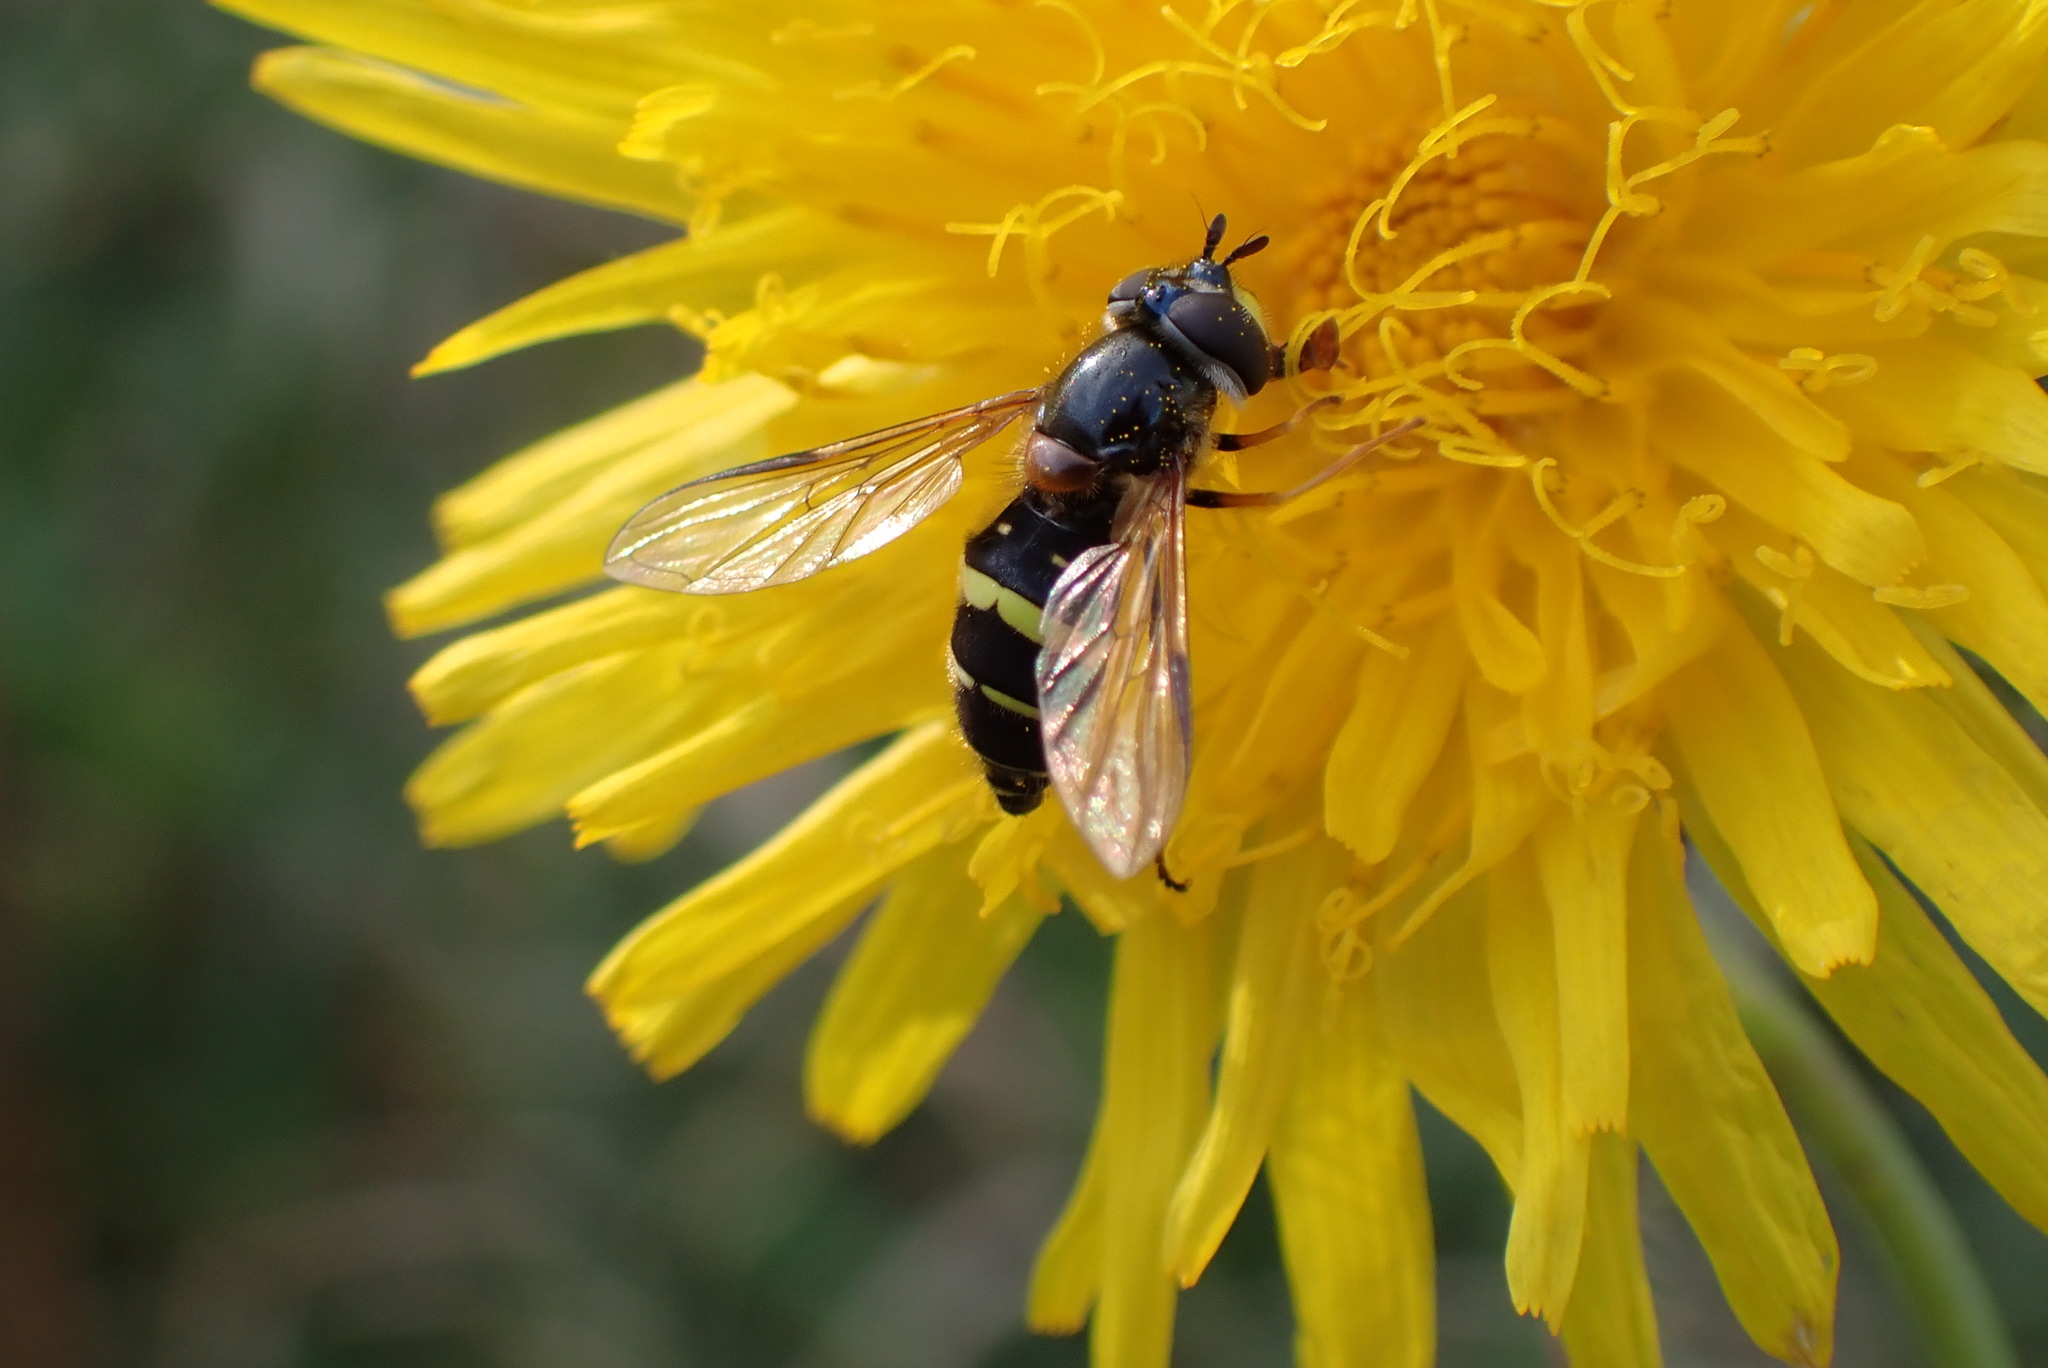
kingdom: Animalia
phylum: Arthropoda
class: Insecta
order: Diptera
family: Syrphidae
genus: Dasysyrphus
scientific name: Dasysyrphus tricinctus
